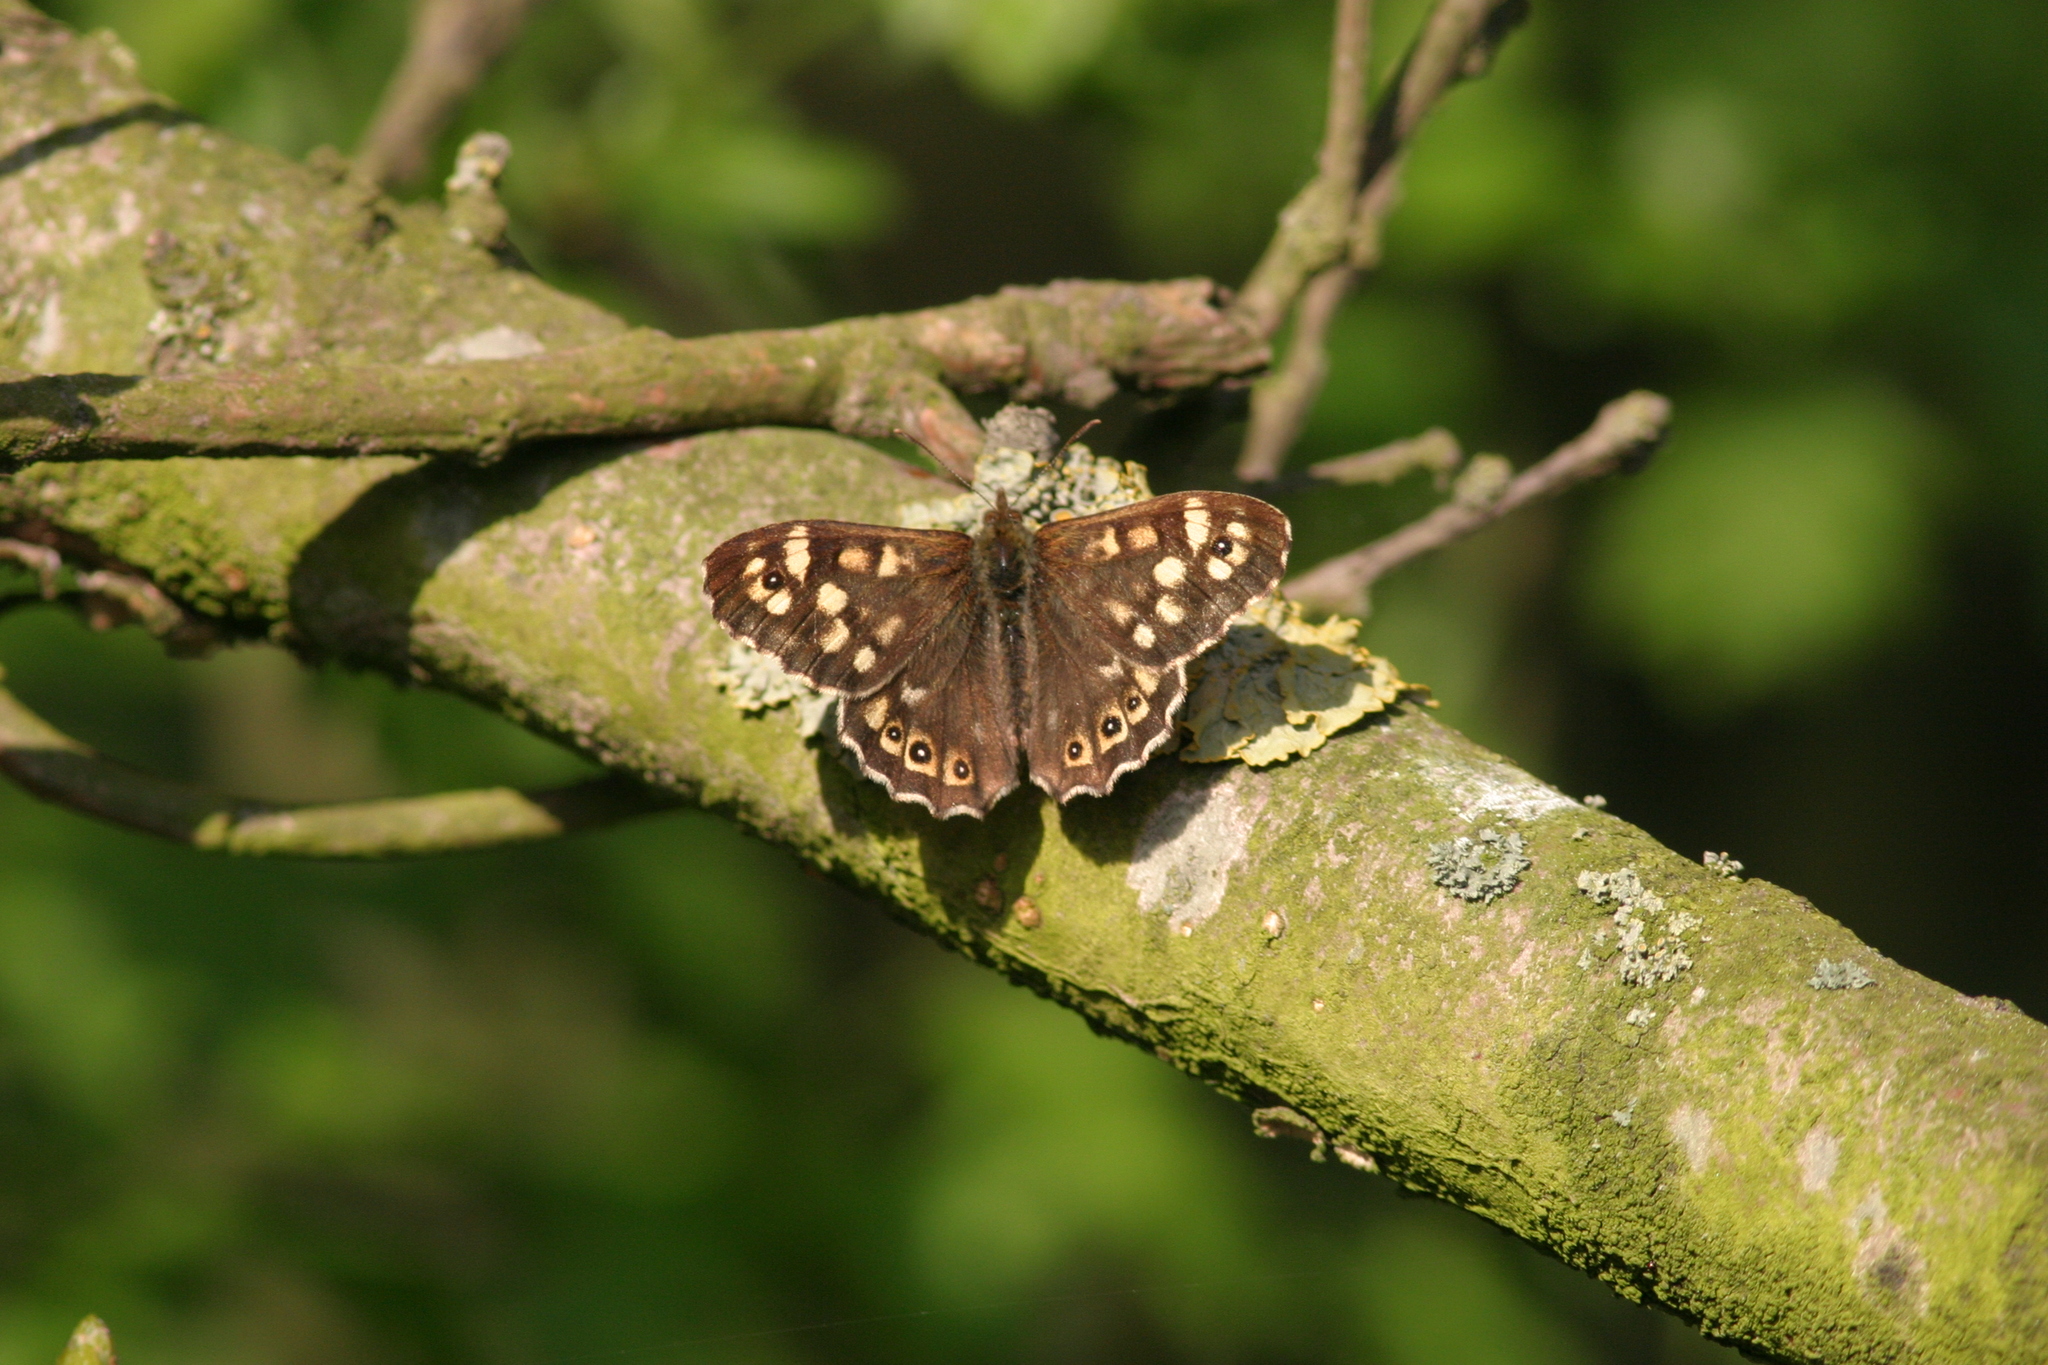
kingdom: Animalia
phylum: Arthropoda
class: Insecta
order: Lepidoptera
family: Nymphalidae
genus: Pararge
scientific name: Pararge aegeria
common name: Speckled wood
